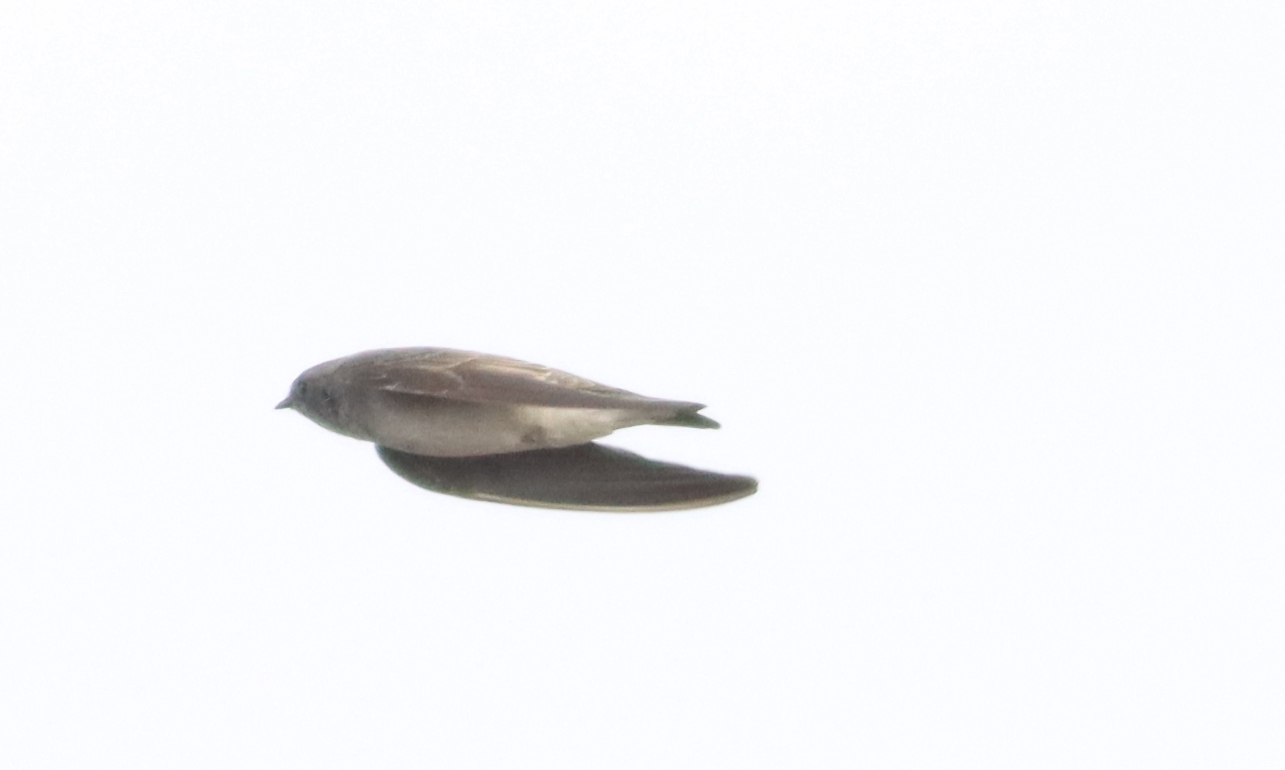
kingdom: Animalia
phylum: Chordata
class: Aves
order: Passeriformes
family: Hirundinidae
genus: Riparia
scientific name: Riparia paludicola
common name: Brown-throated martin
